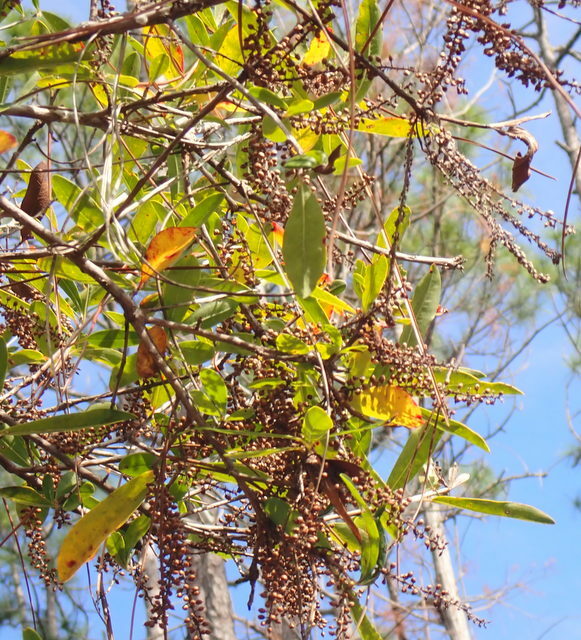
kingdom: Plantae
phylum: Tracheophyta
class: Magnoliopsida
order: Ericales
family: Cyrillaceae
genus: Cyrilla
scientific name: Cyrilla racemiflora
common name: Black titi
